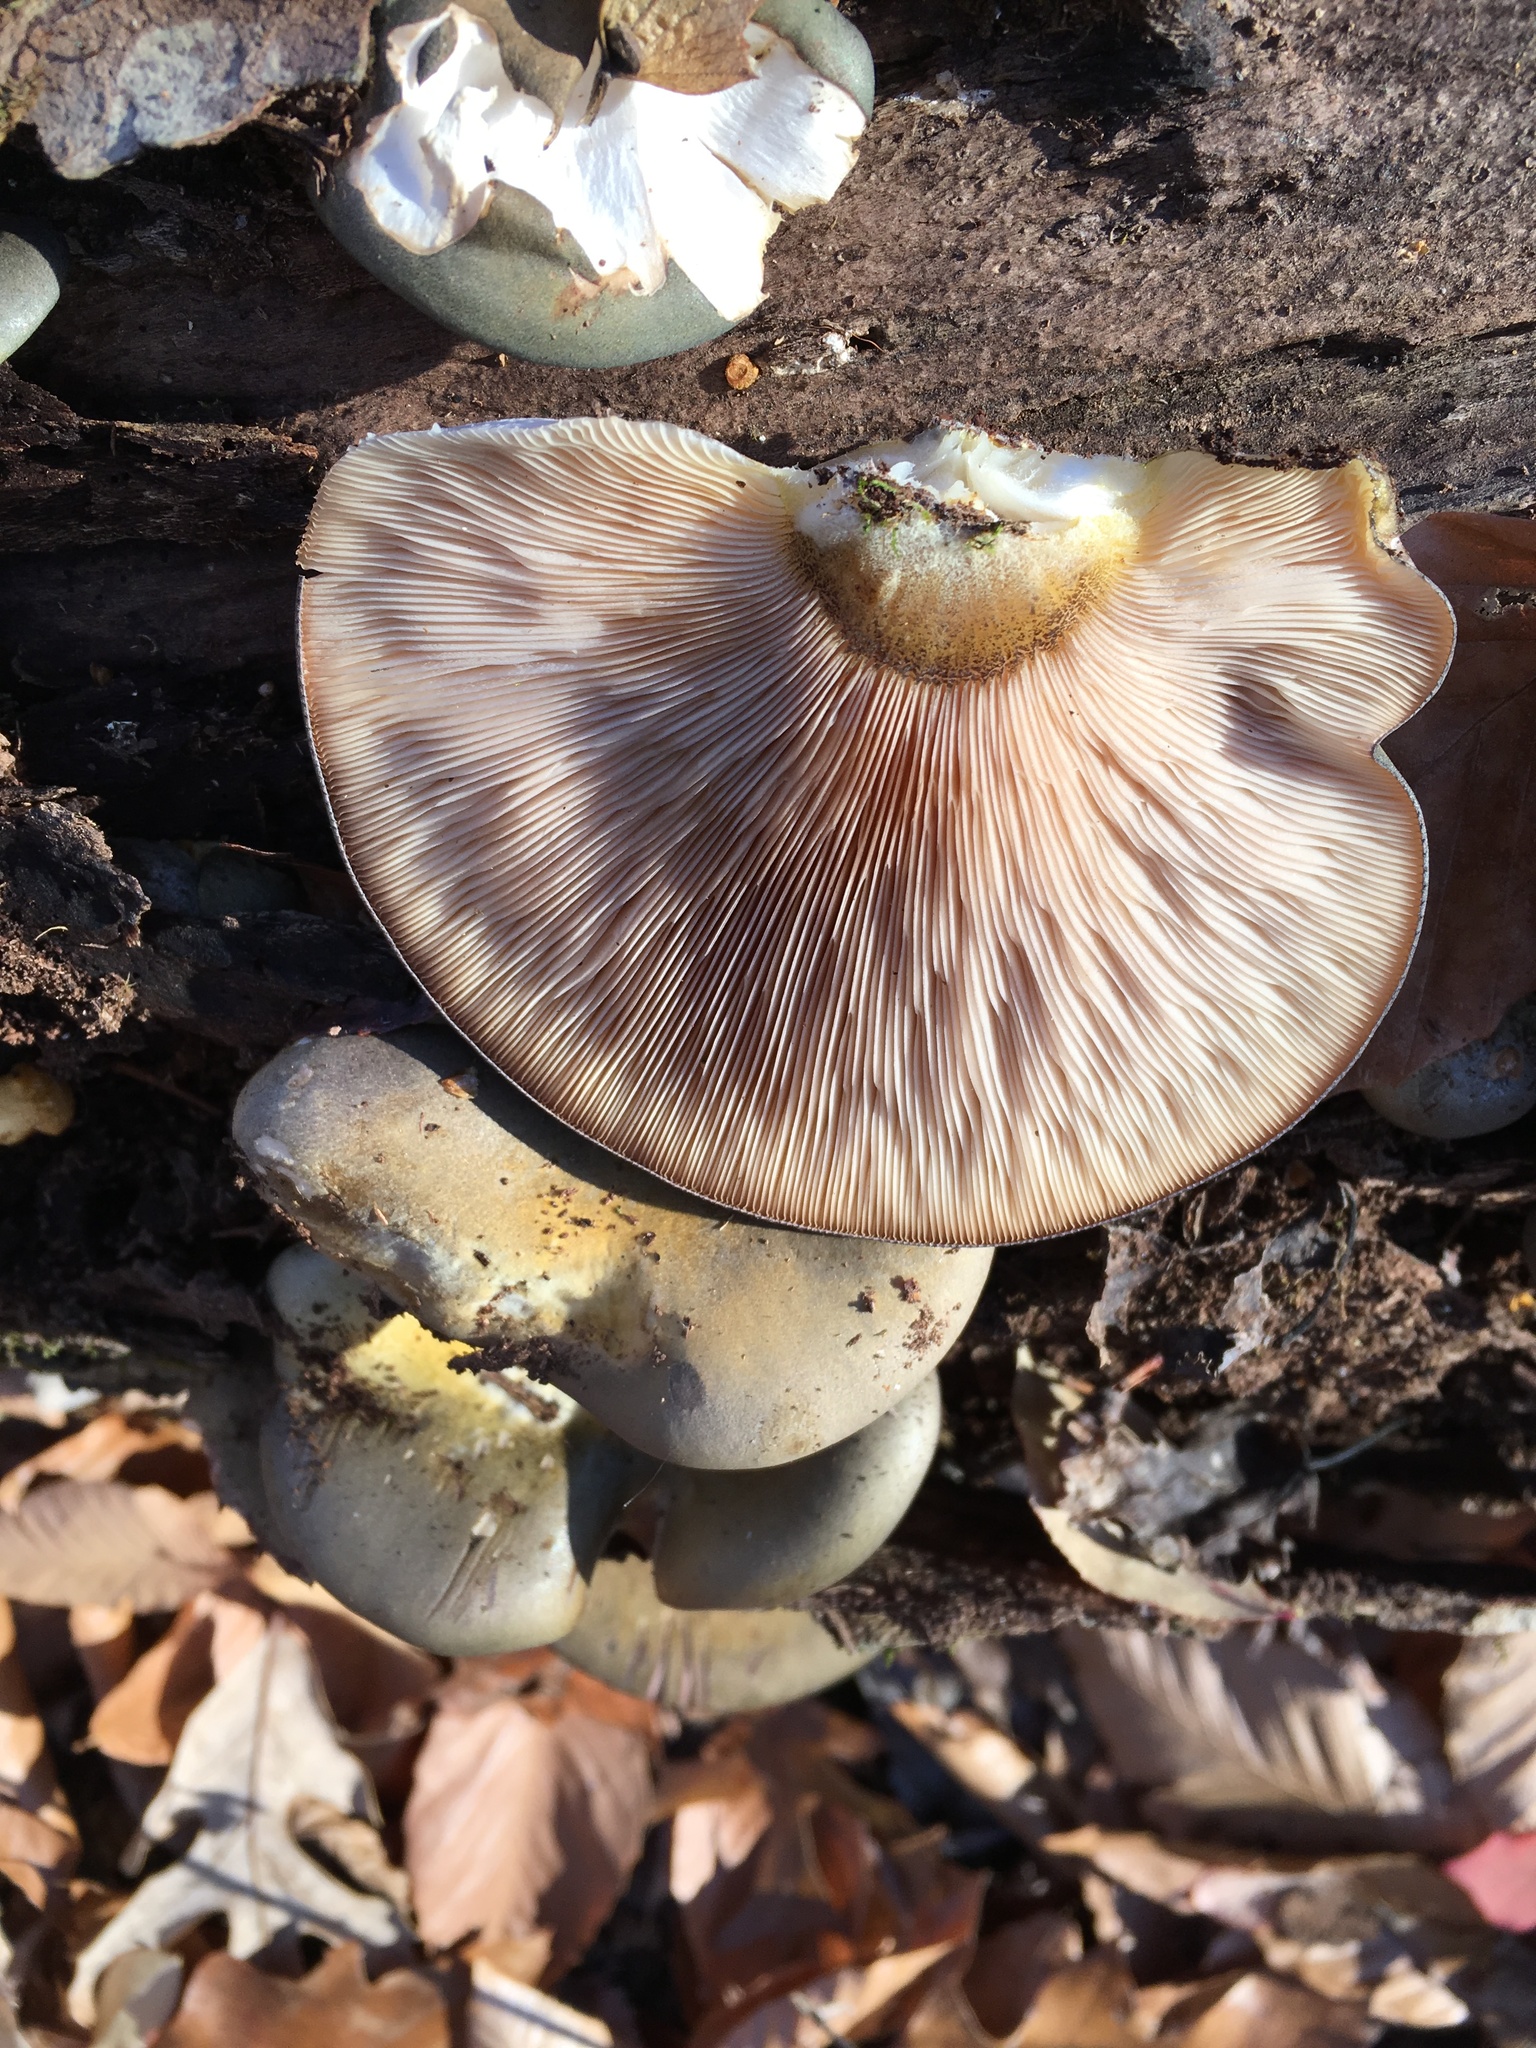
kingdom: Fungi
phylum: Basidiomycota
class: Agaricomycetes
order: Agaricales
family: Sarcomyxaceae
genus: Sarcomyxa
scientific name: Sarcomyxa serotina
